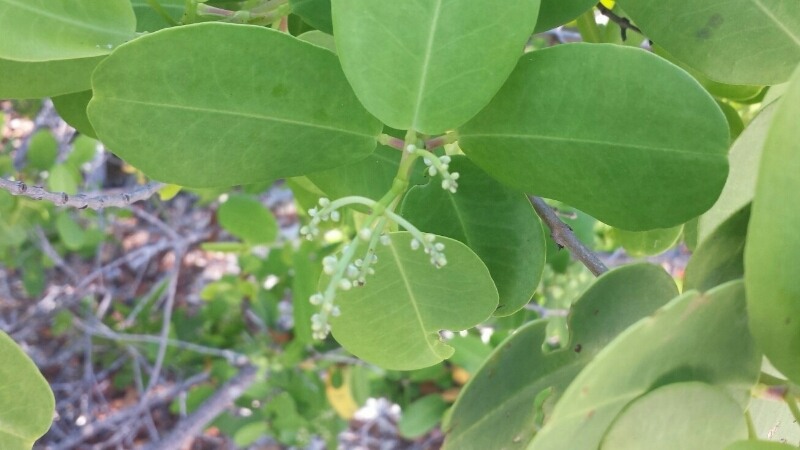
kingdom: Plantae
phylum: Tracheophyta
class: Magnoliopsida
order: Myrtales
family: Combretaceae
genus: Laguncularia
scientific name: Laguncularia racemosa
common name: White mangrove
